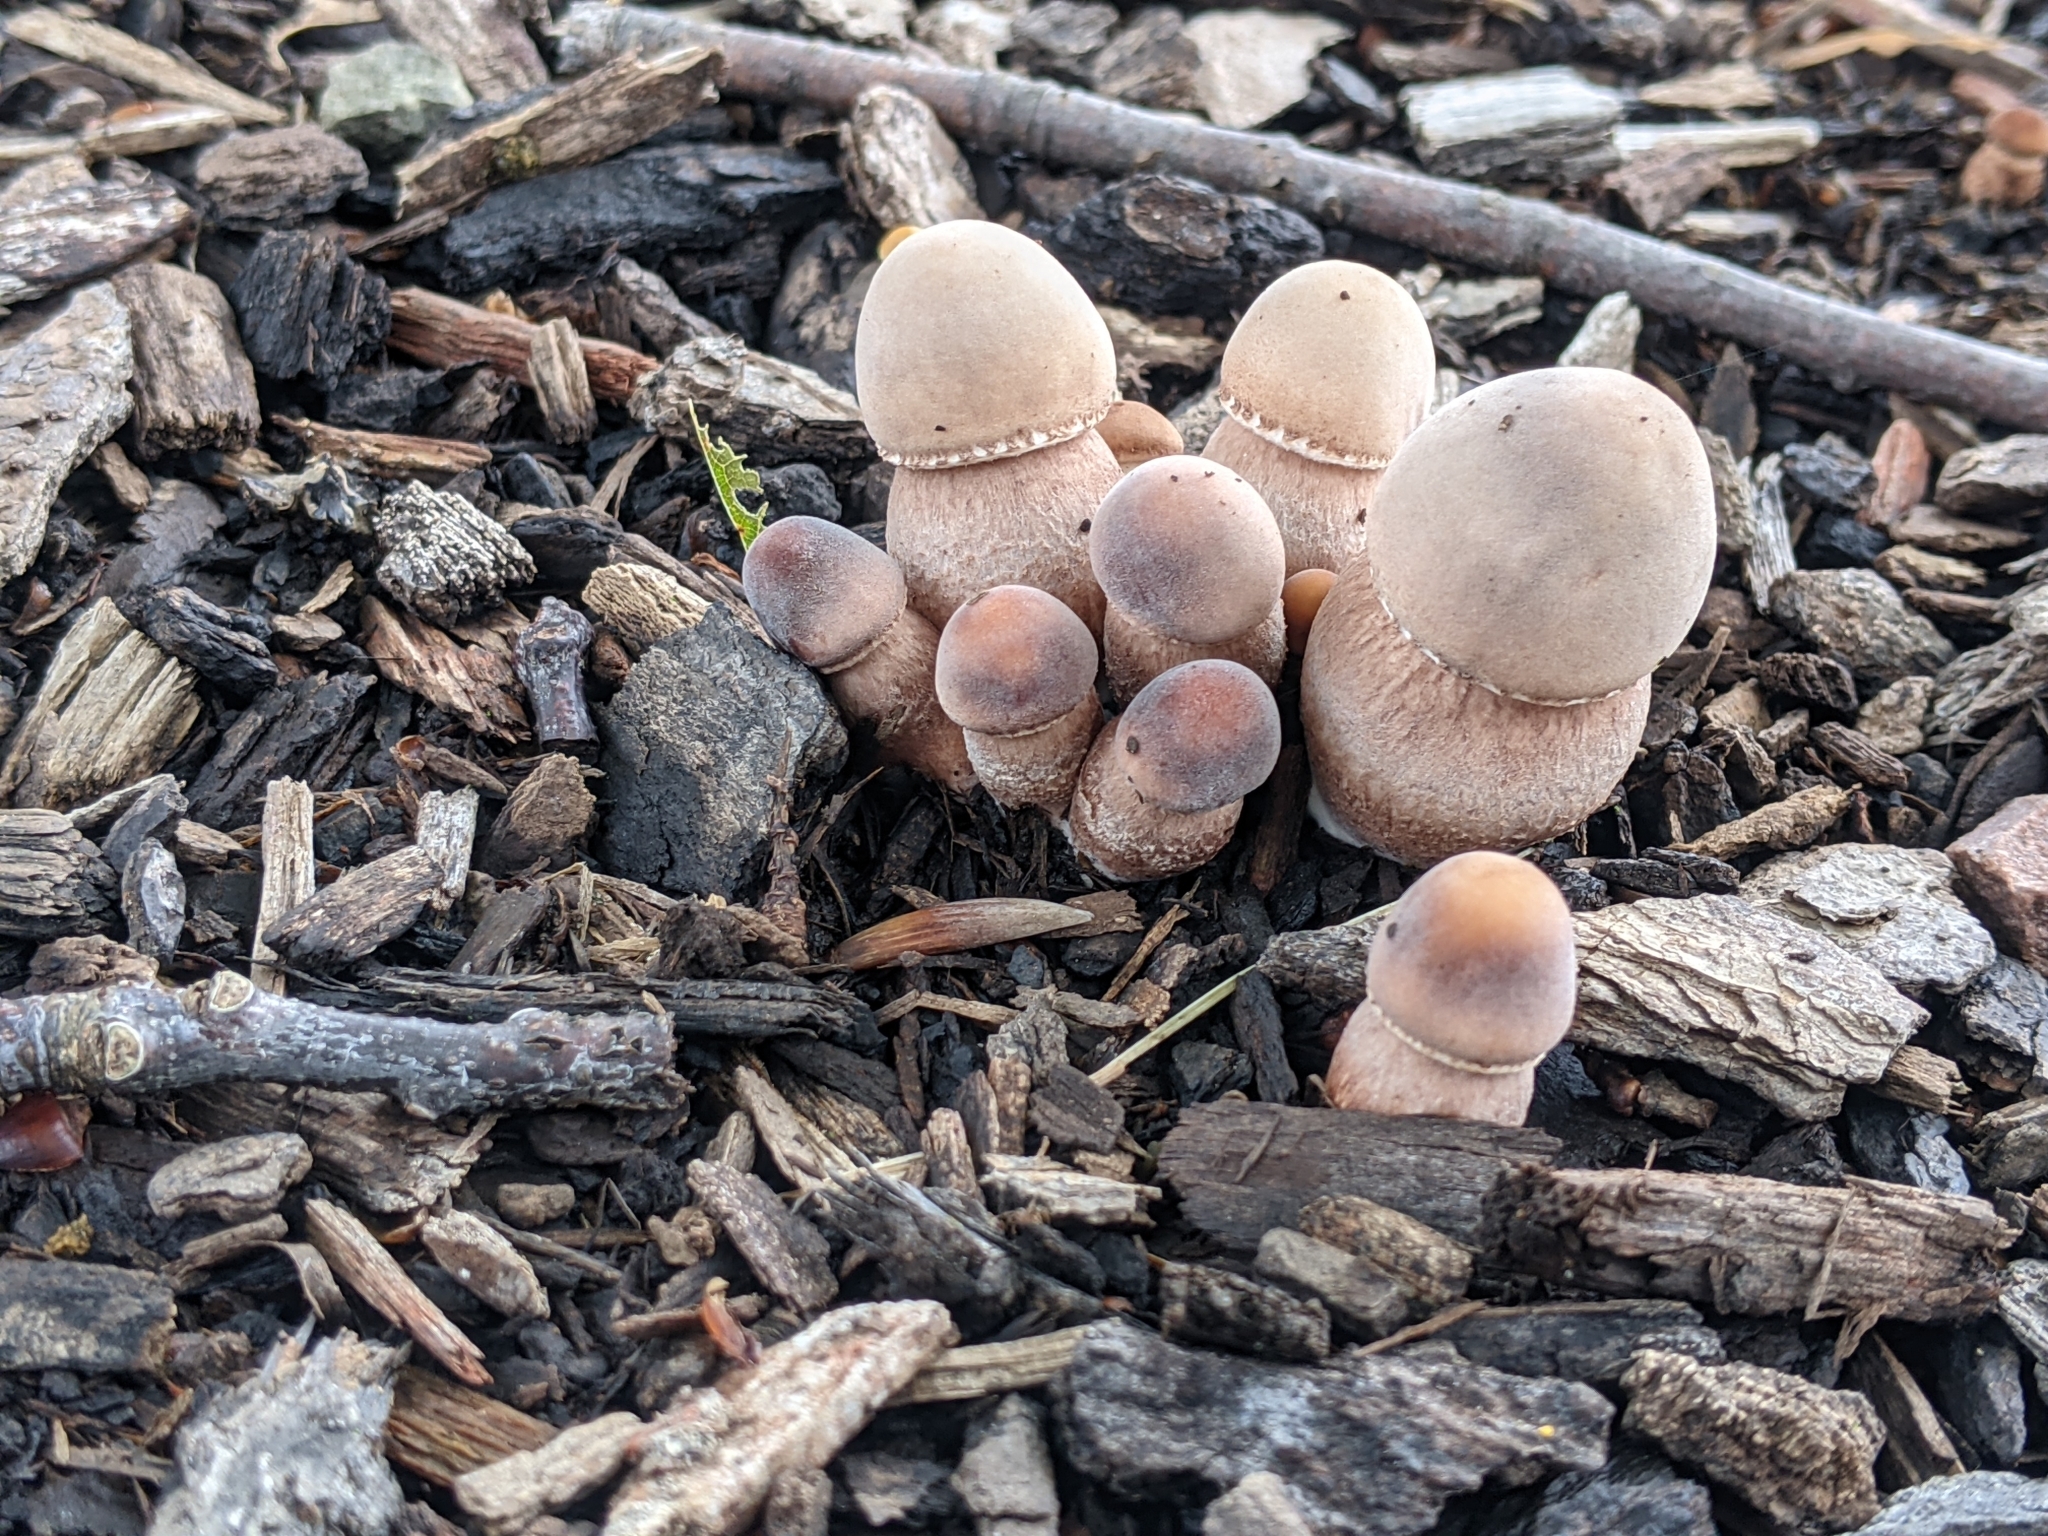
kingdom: Fungi
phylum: Basidiomycota
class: Agaricomycetes
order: Agaricales
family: Agaricaceae
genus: Leucoagaricus
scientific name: Leucoagaricus americanus
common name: Reddening lepiota
